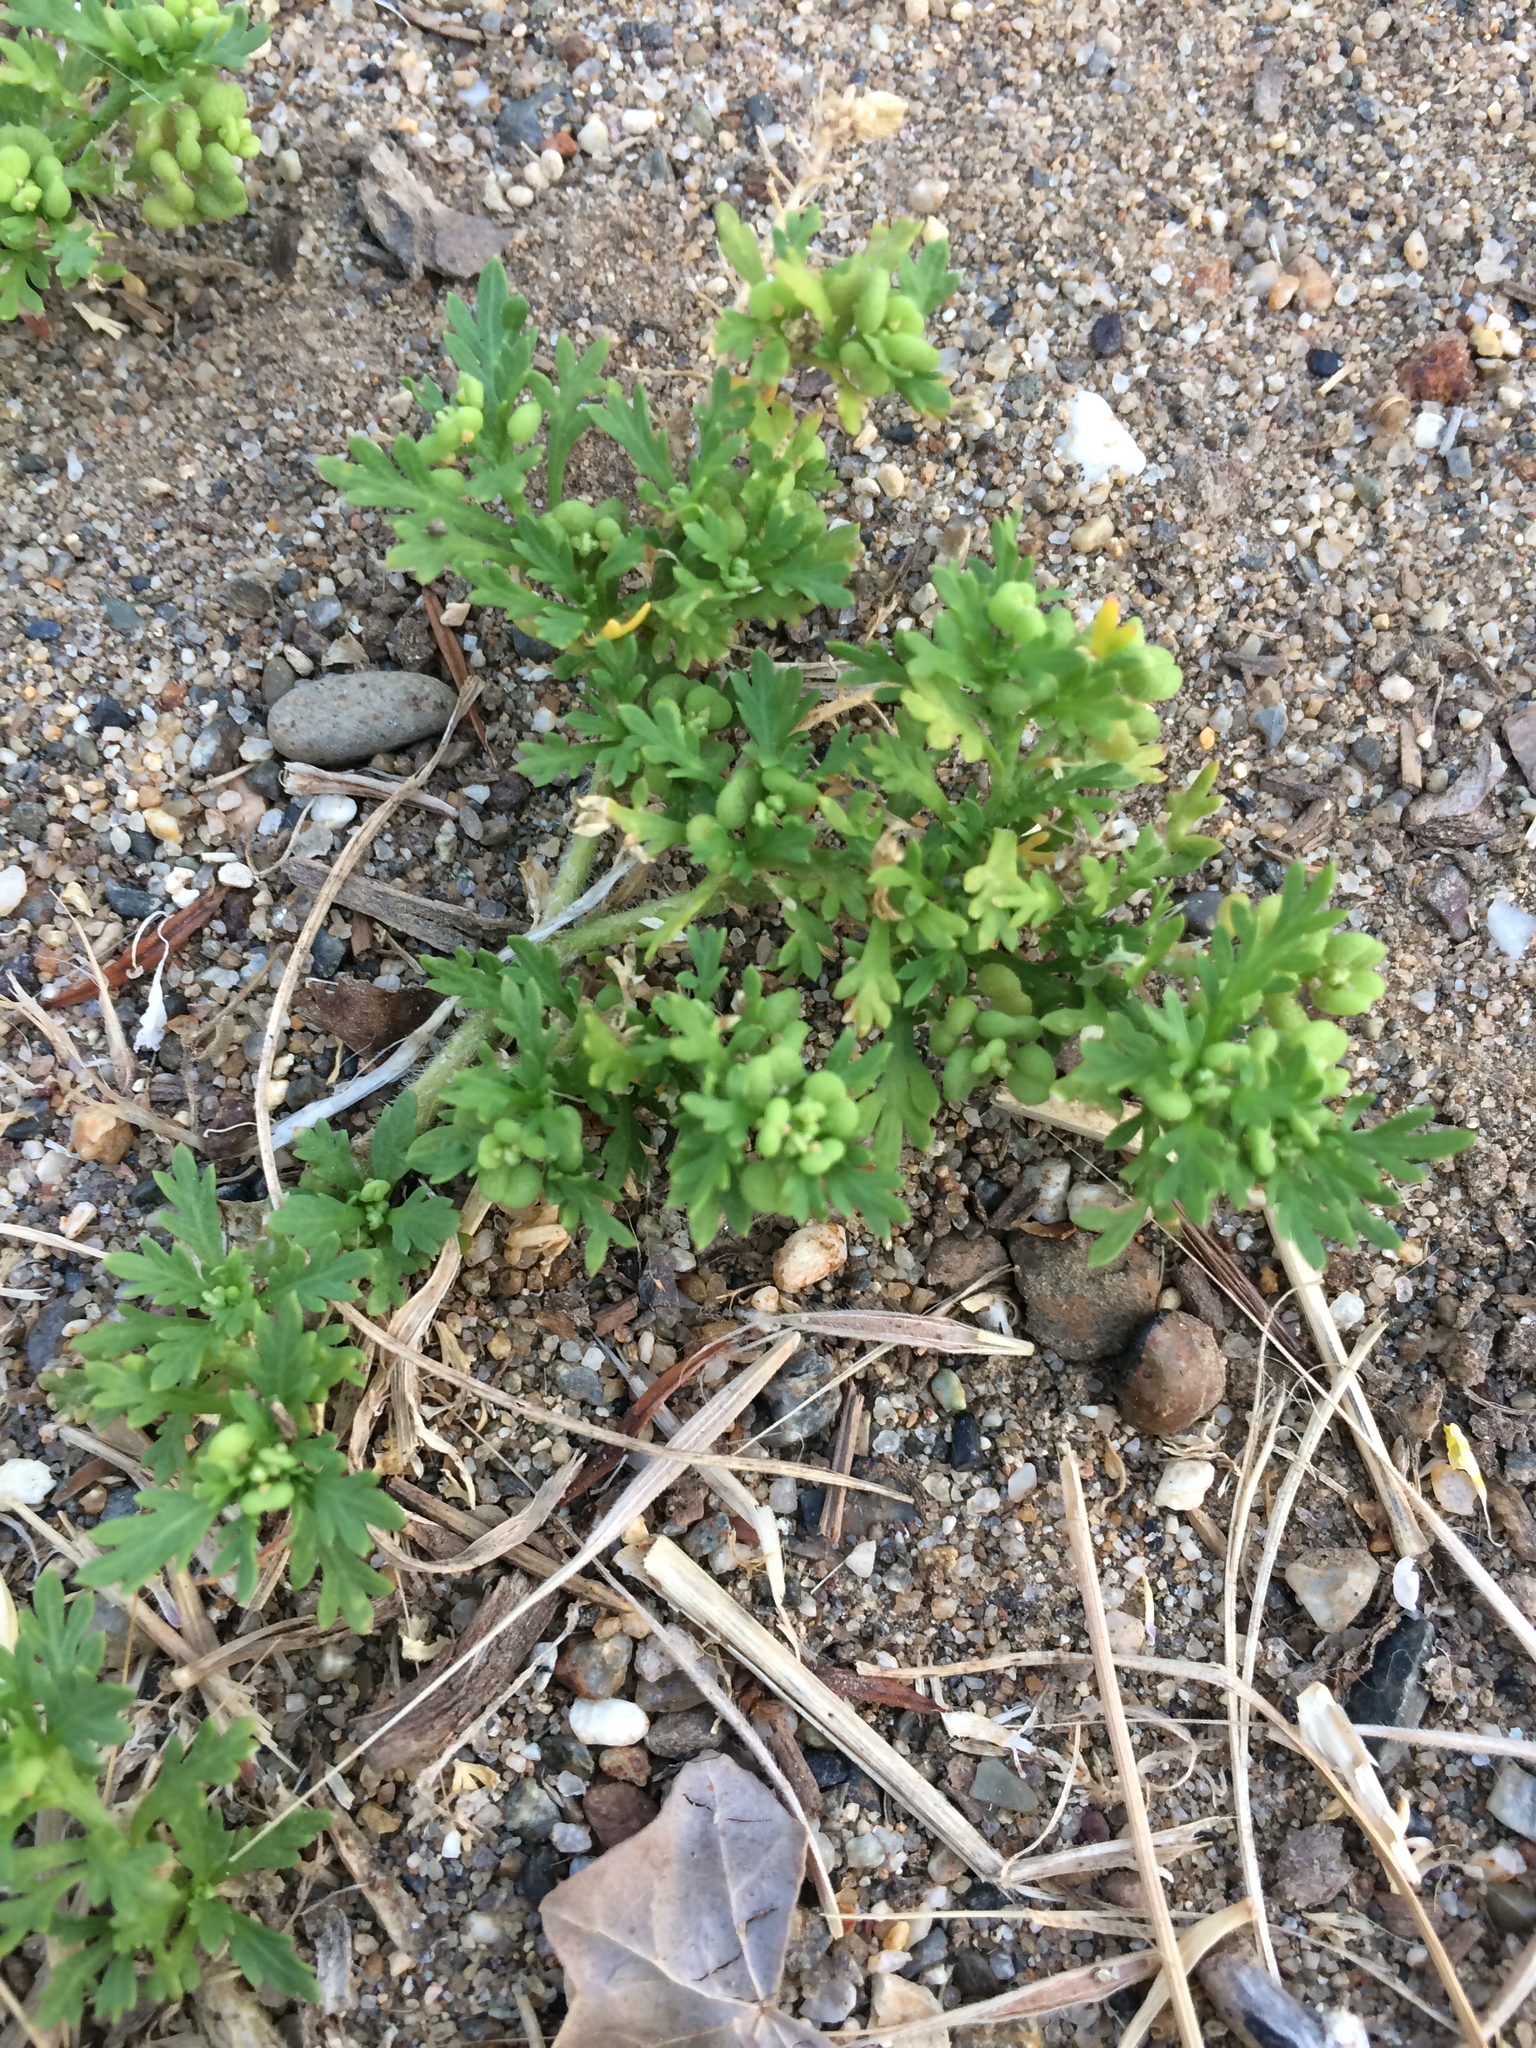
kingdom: Plantae
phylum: Tracheophyta
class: Magnoliopsida
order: Brassicales
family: Brassicaceae
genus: Lepidium
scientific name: Lepidium didymum
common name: Lesser swinecress
